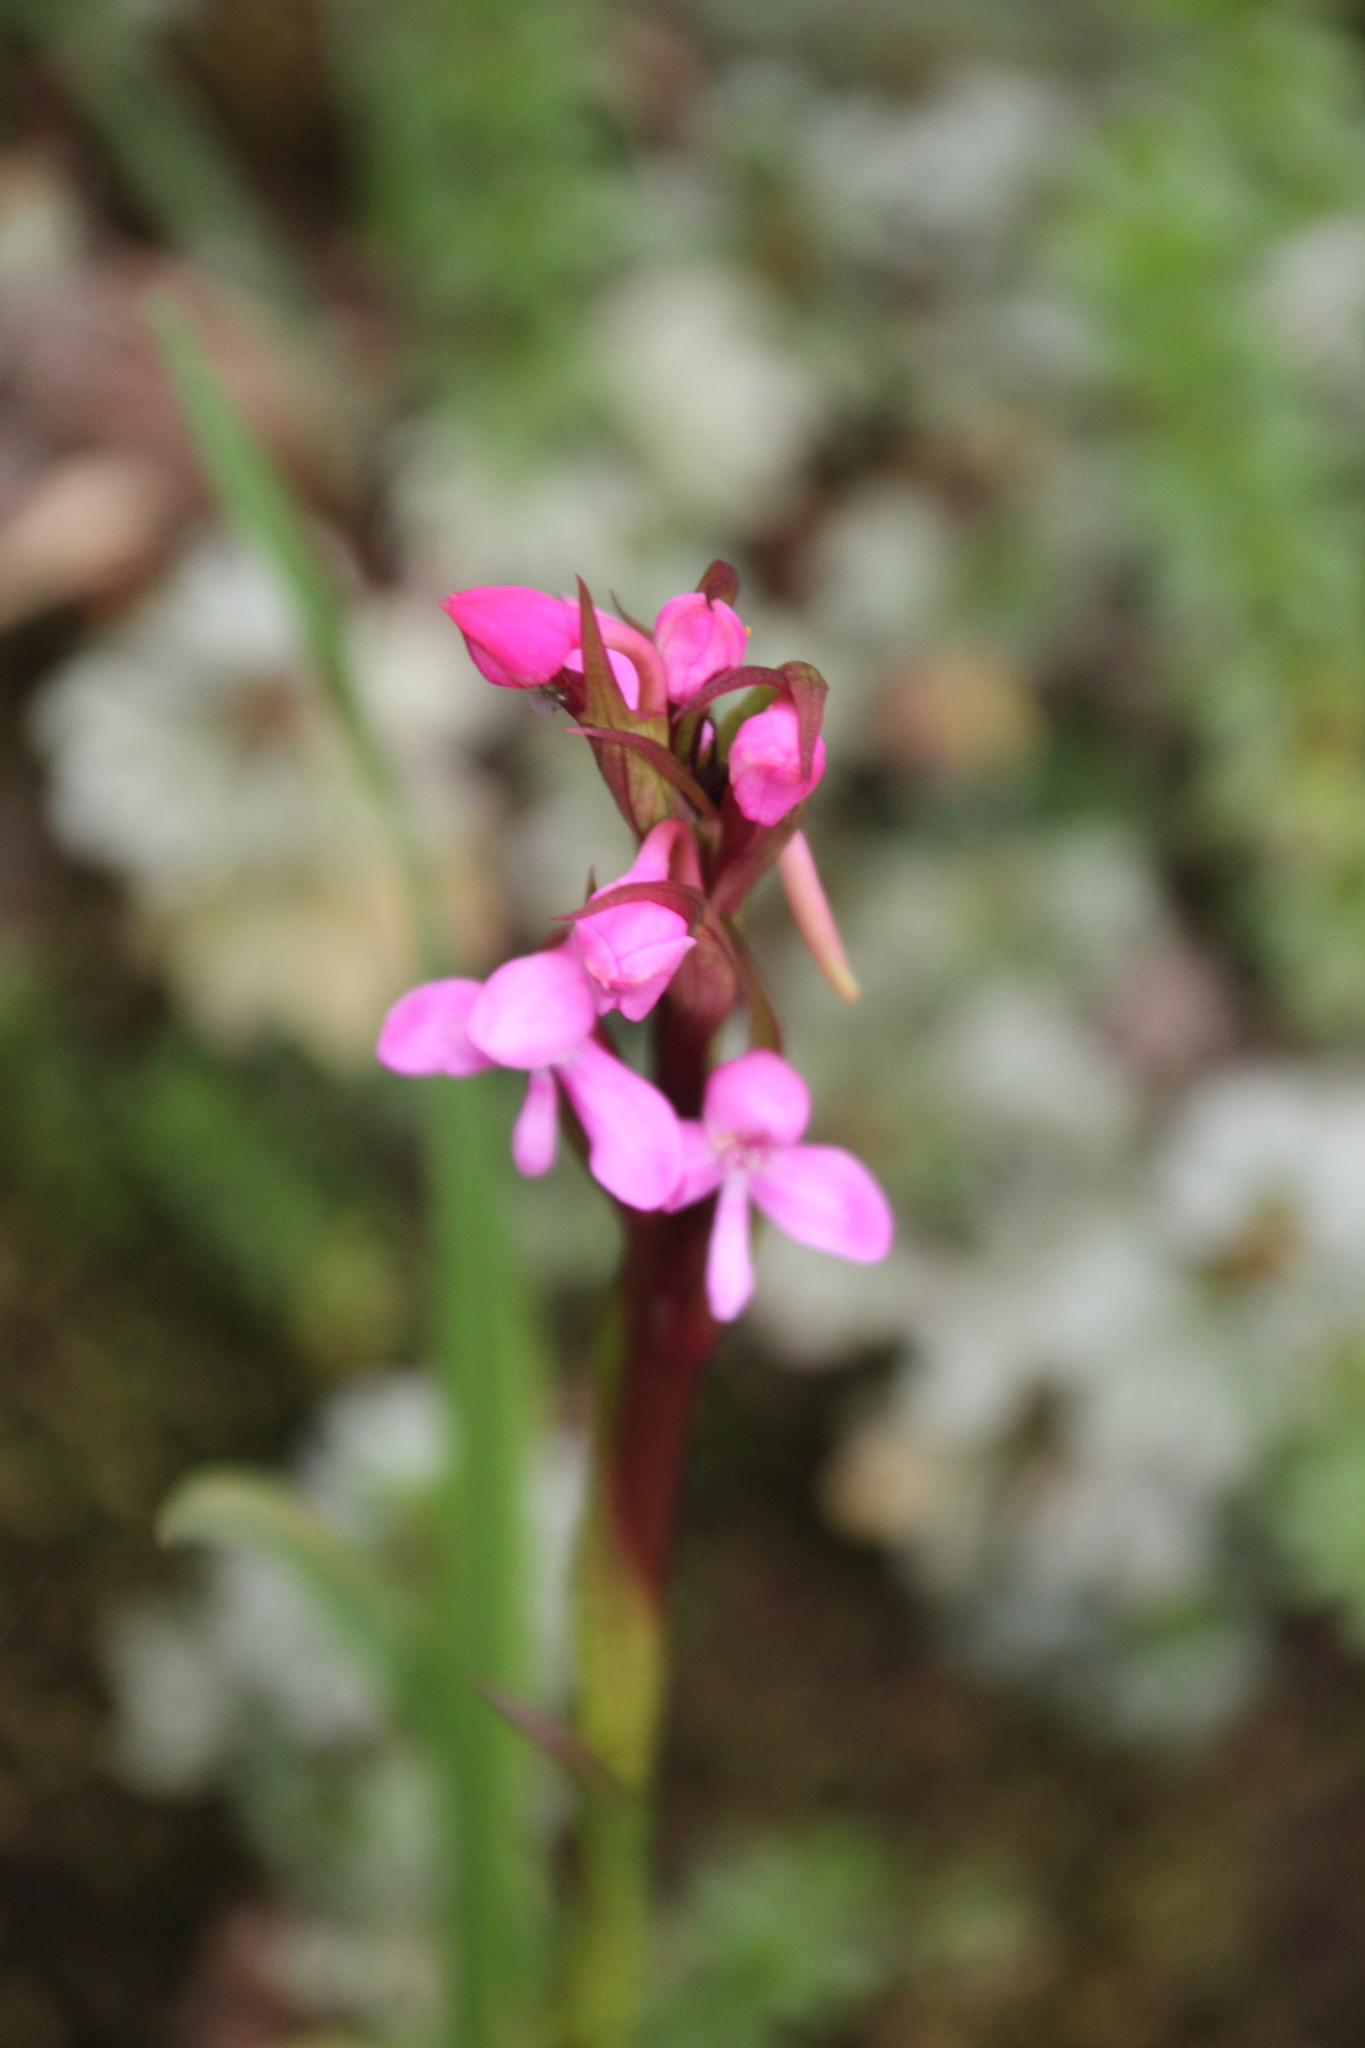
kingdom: Plantae
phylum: Tracheophyta
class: Liliopsida
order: Asparagales
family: Orchidaceae
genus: Disa
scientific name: Disa stairsii
